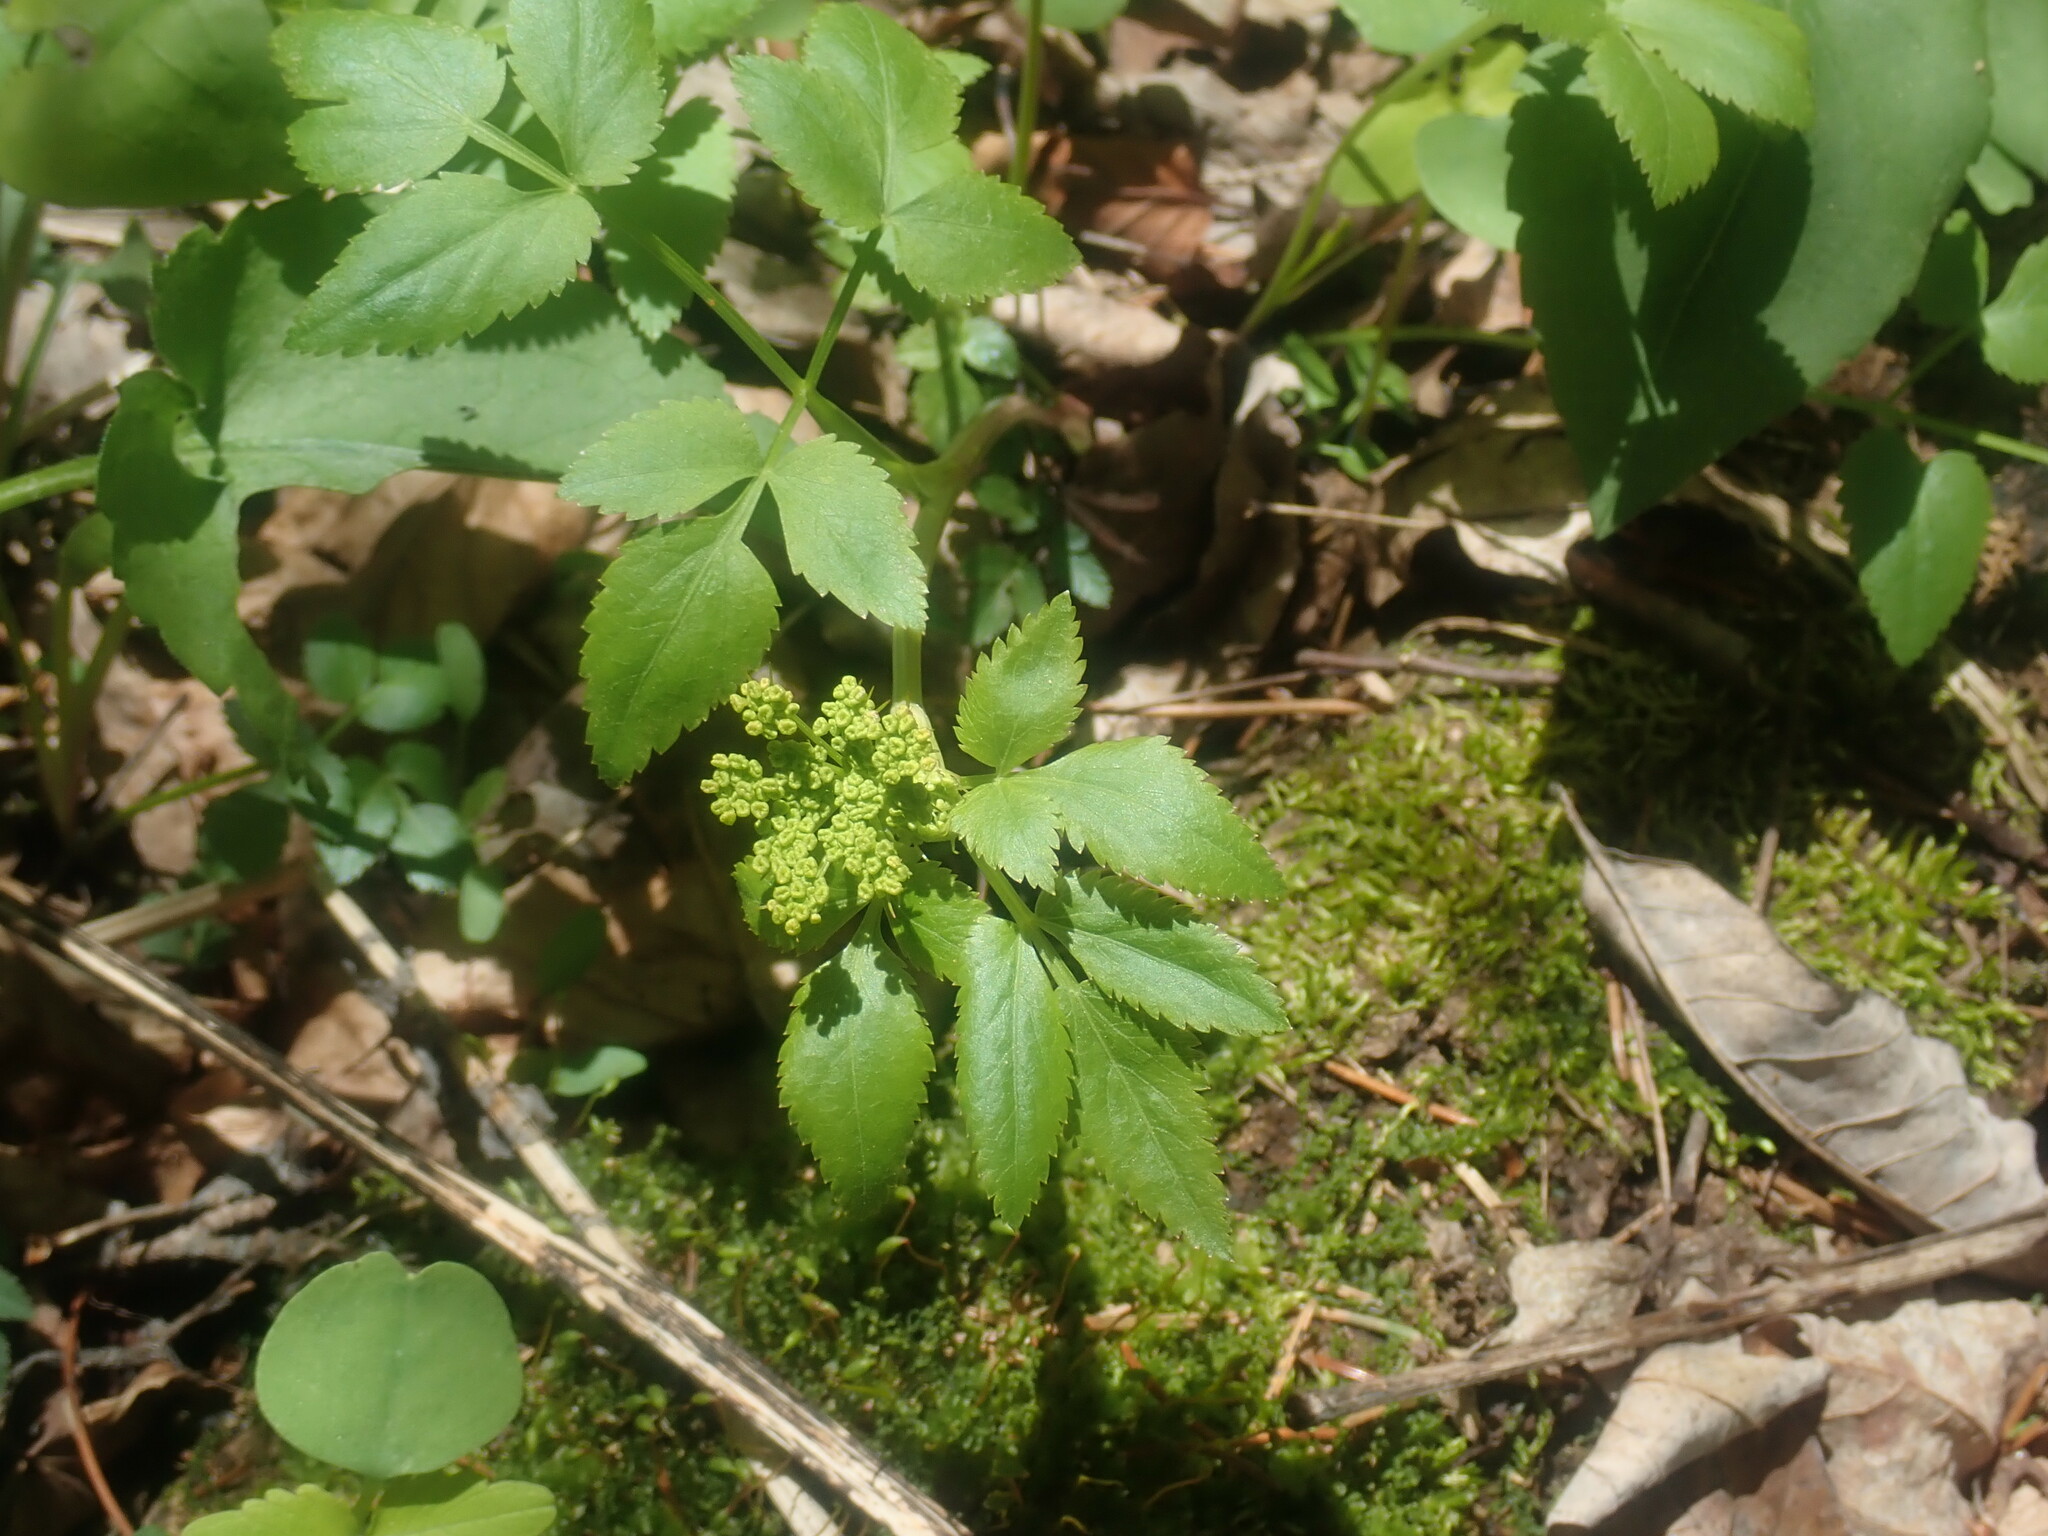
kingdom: Plantae
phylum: Tracheophyta
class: Magnoliopsida
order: Apiales
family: Apiaceae
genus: Zizia
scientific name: Zizia aurea
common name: Golden alexanders
